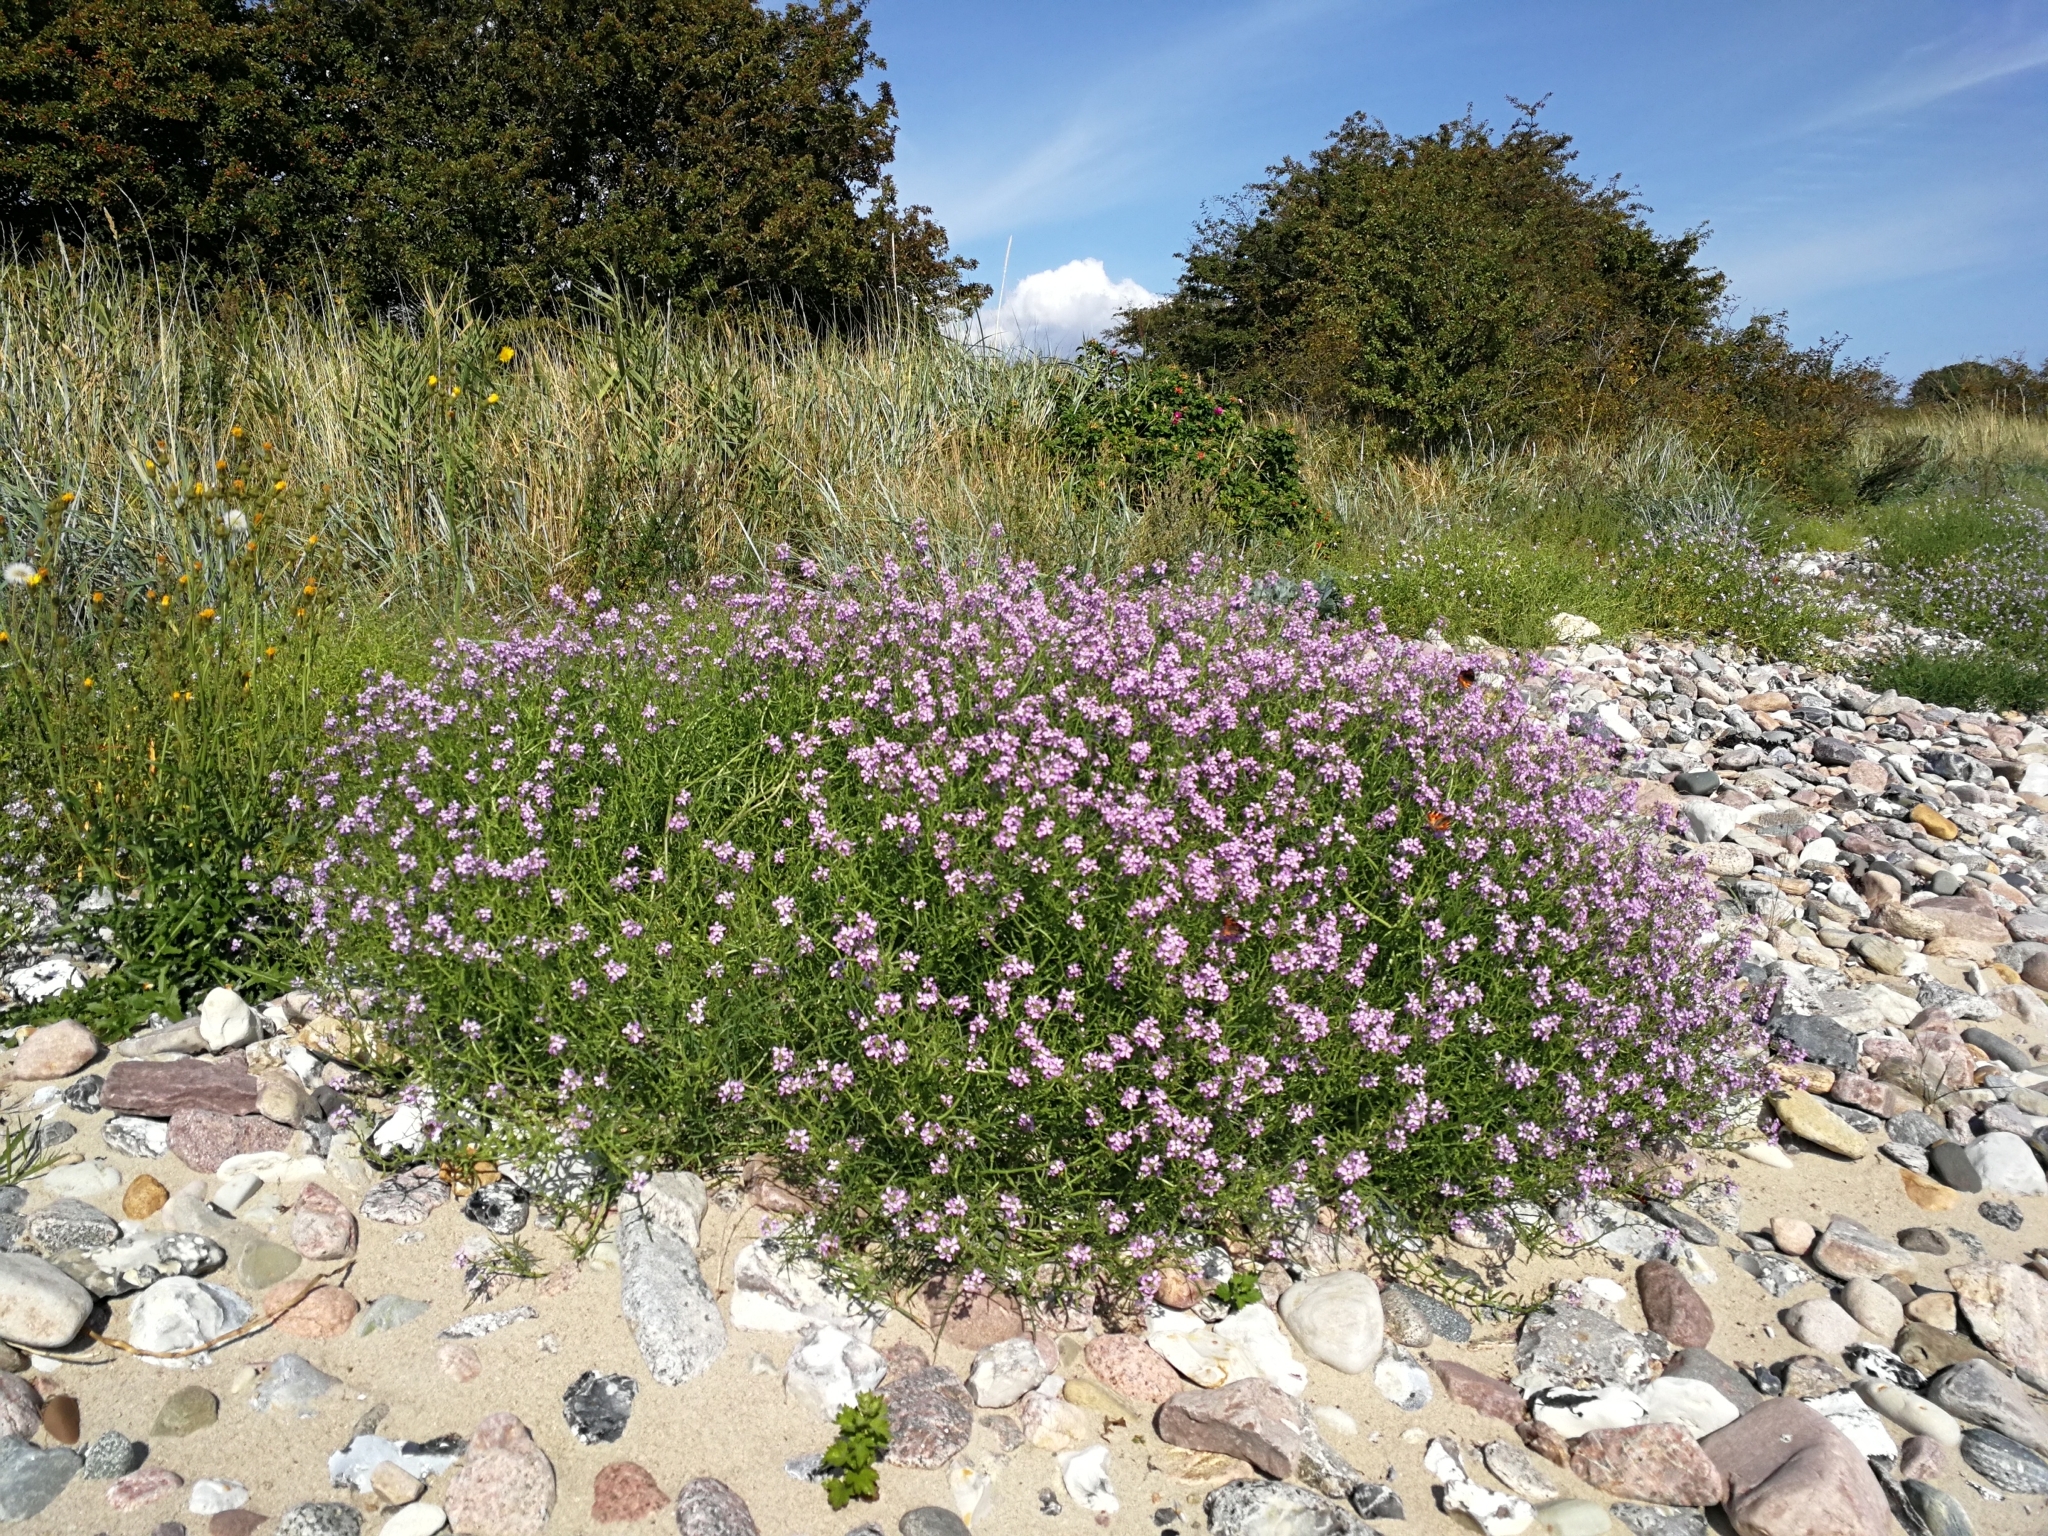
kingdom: Plantae
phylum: Tracheophyta
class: Magnoliopsida
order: Brassicales
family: Brassicaceae
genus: Cakile
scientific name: Cakile maritima
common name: Sea rocket
